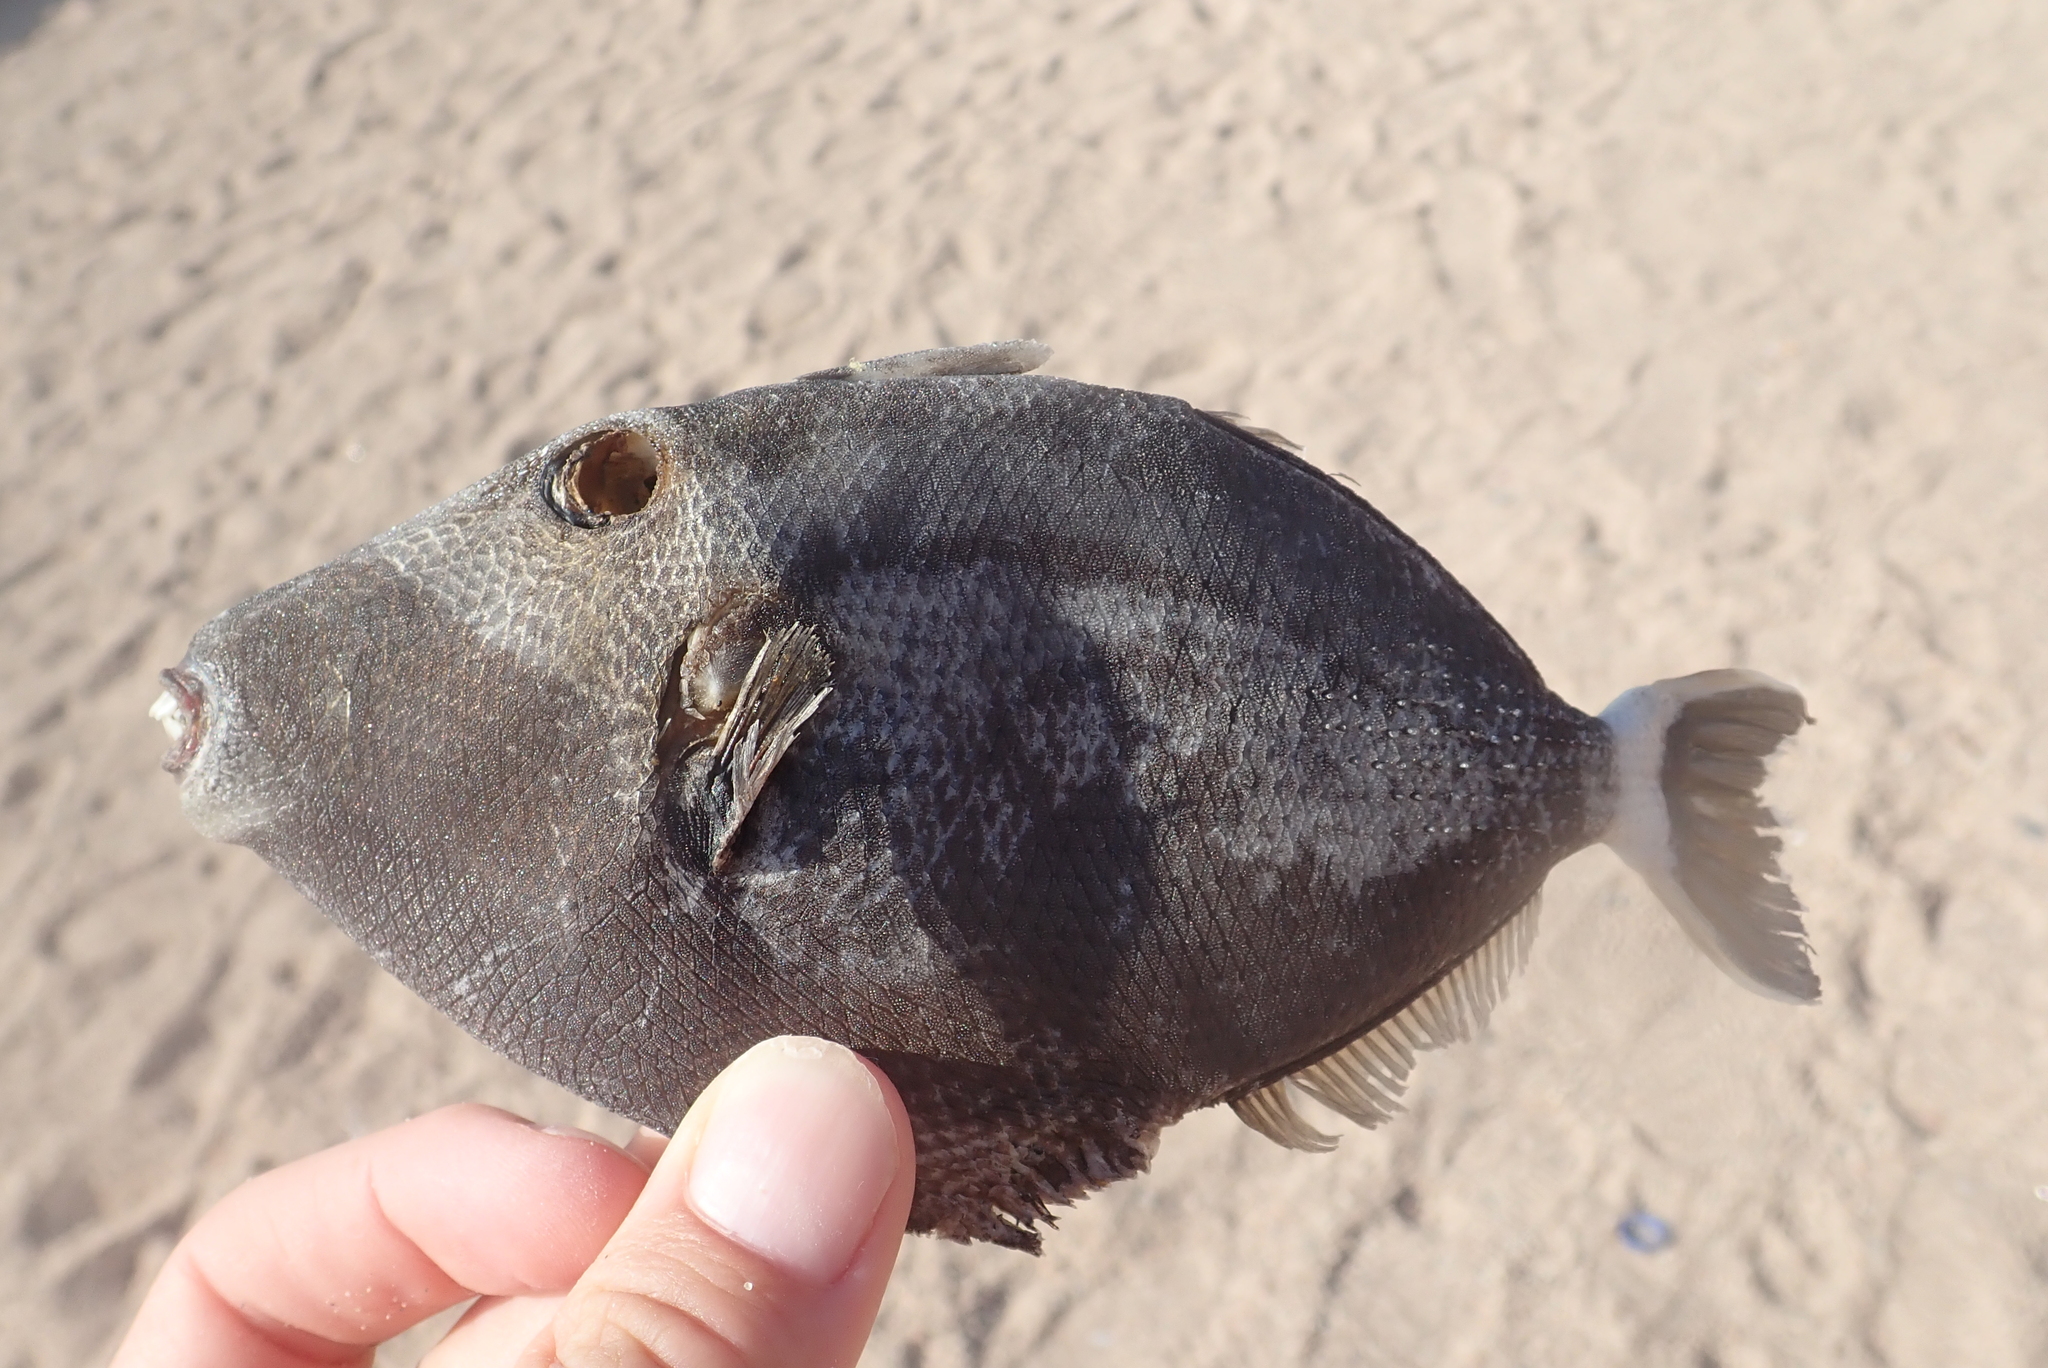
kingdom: Animalia
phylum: Chordata
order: Tetraodontiformes
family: Balistidae
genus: Sufflamen
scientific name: Sufflamen albicaudatum
